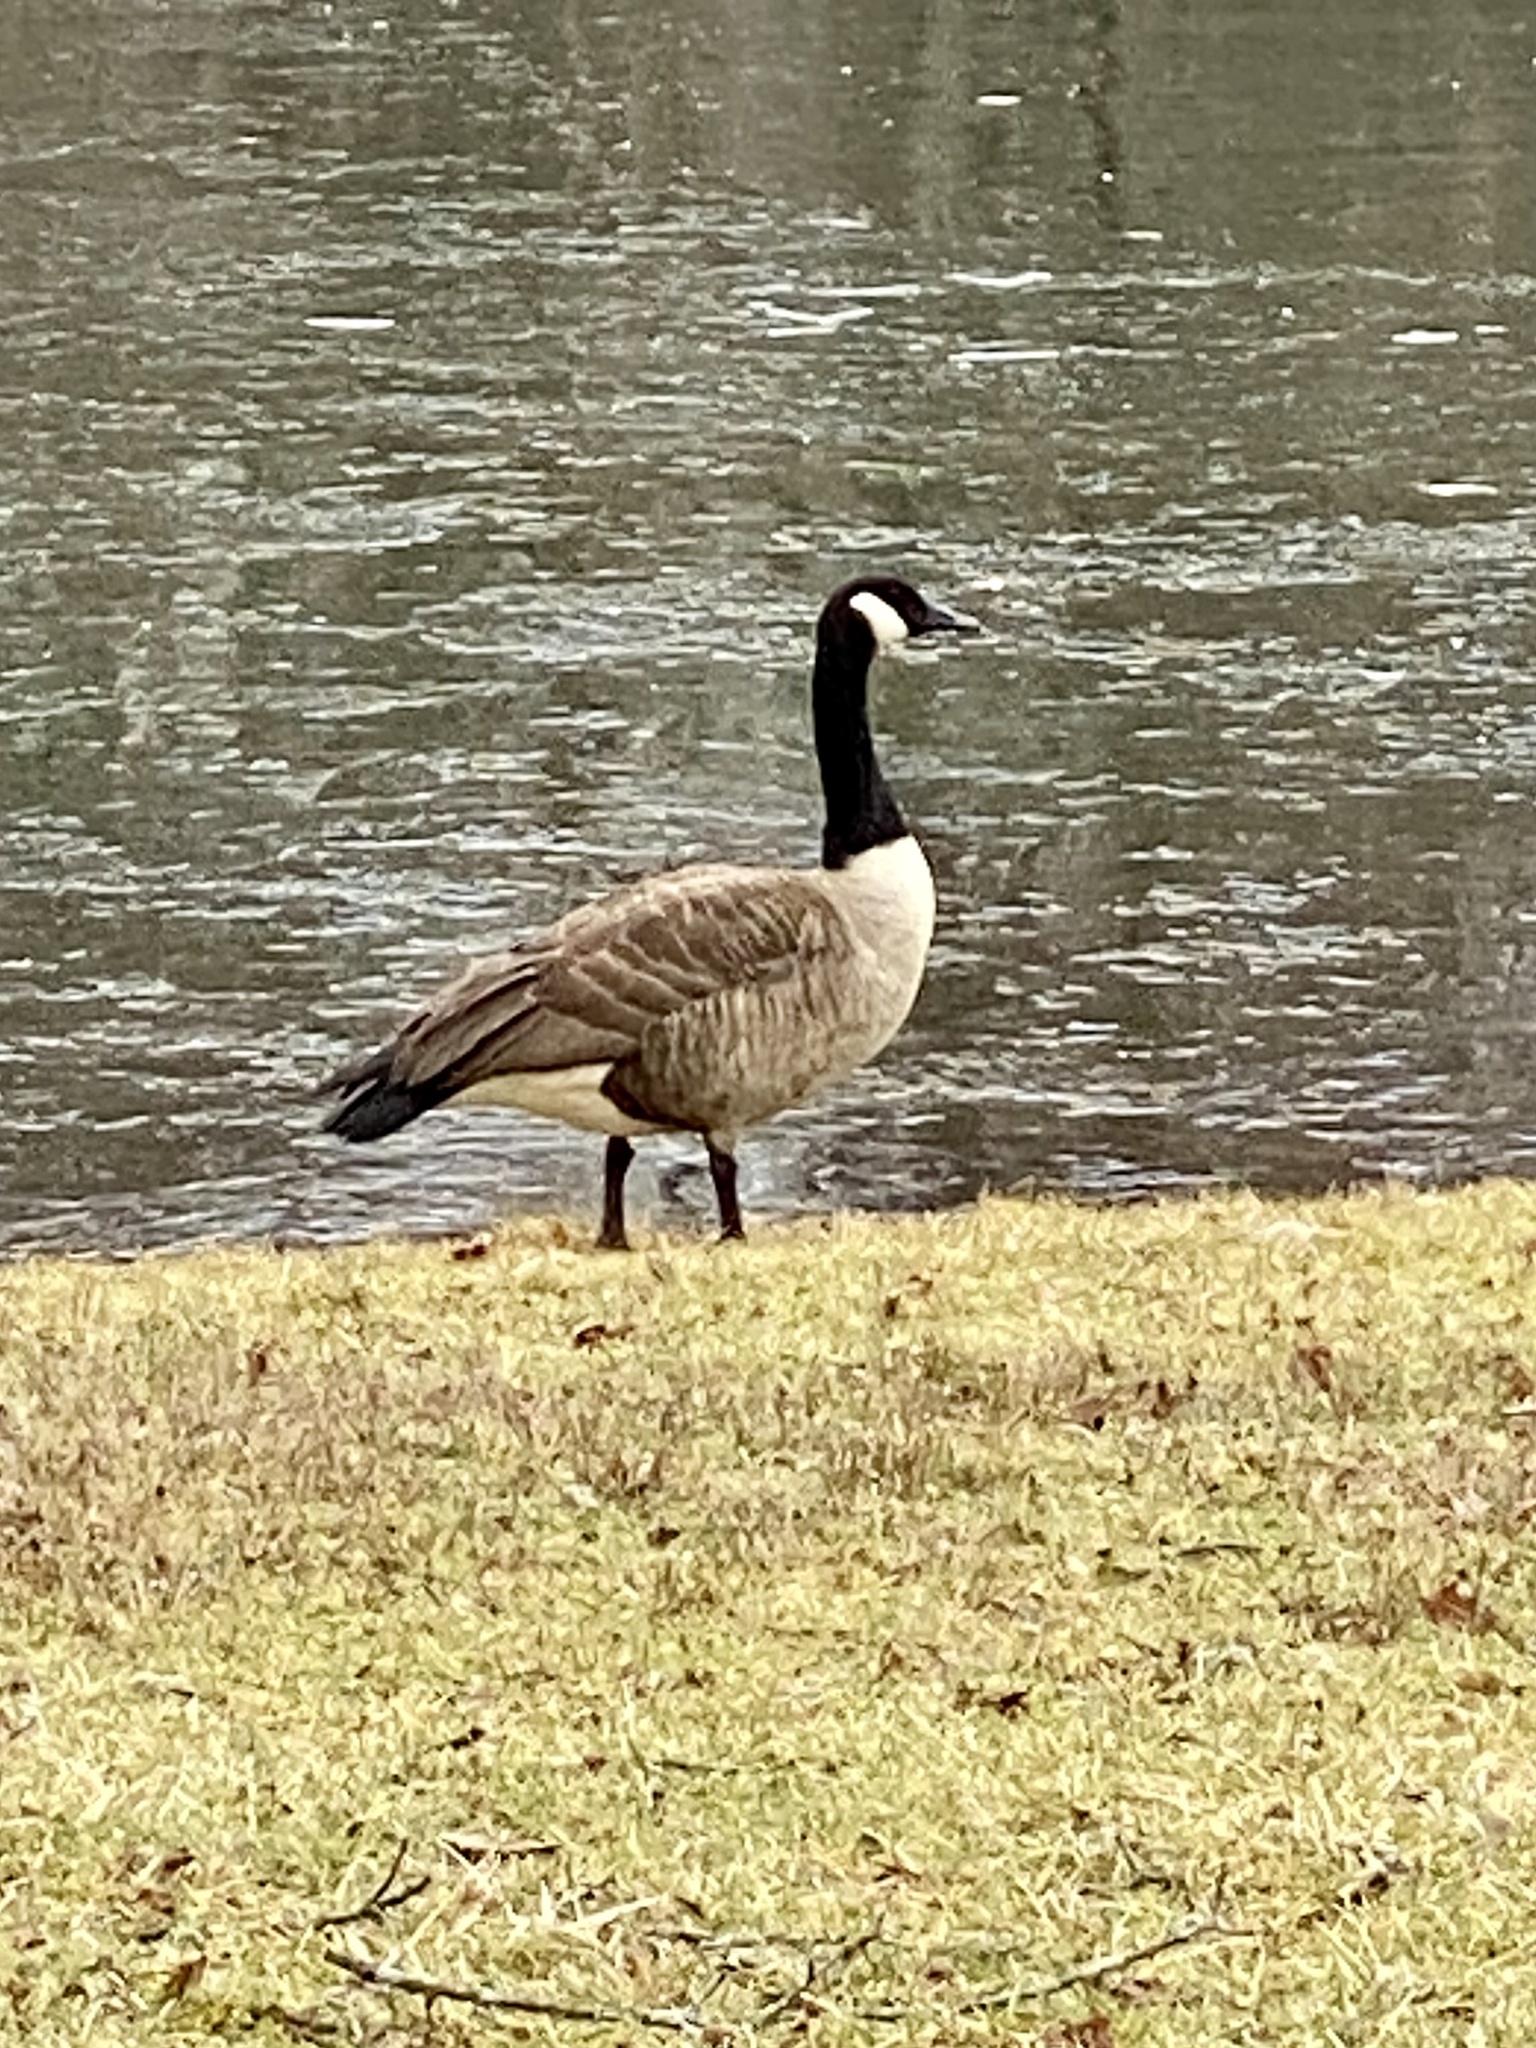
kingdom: Animalia
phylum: Chordata
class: Aves
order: Anseriformes
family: Anatidae
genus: Branta
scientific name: Branta canadensis
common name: Canada goose
